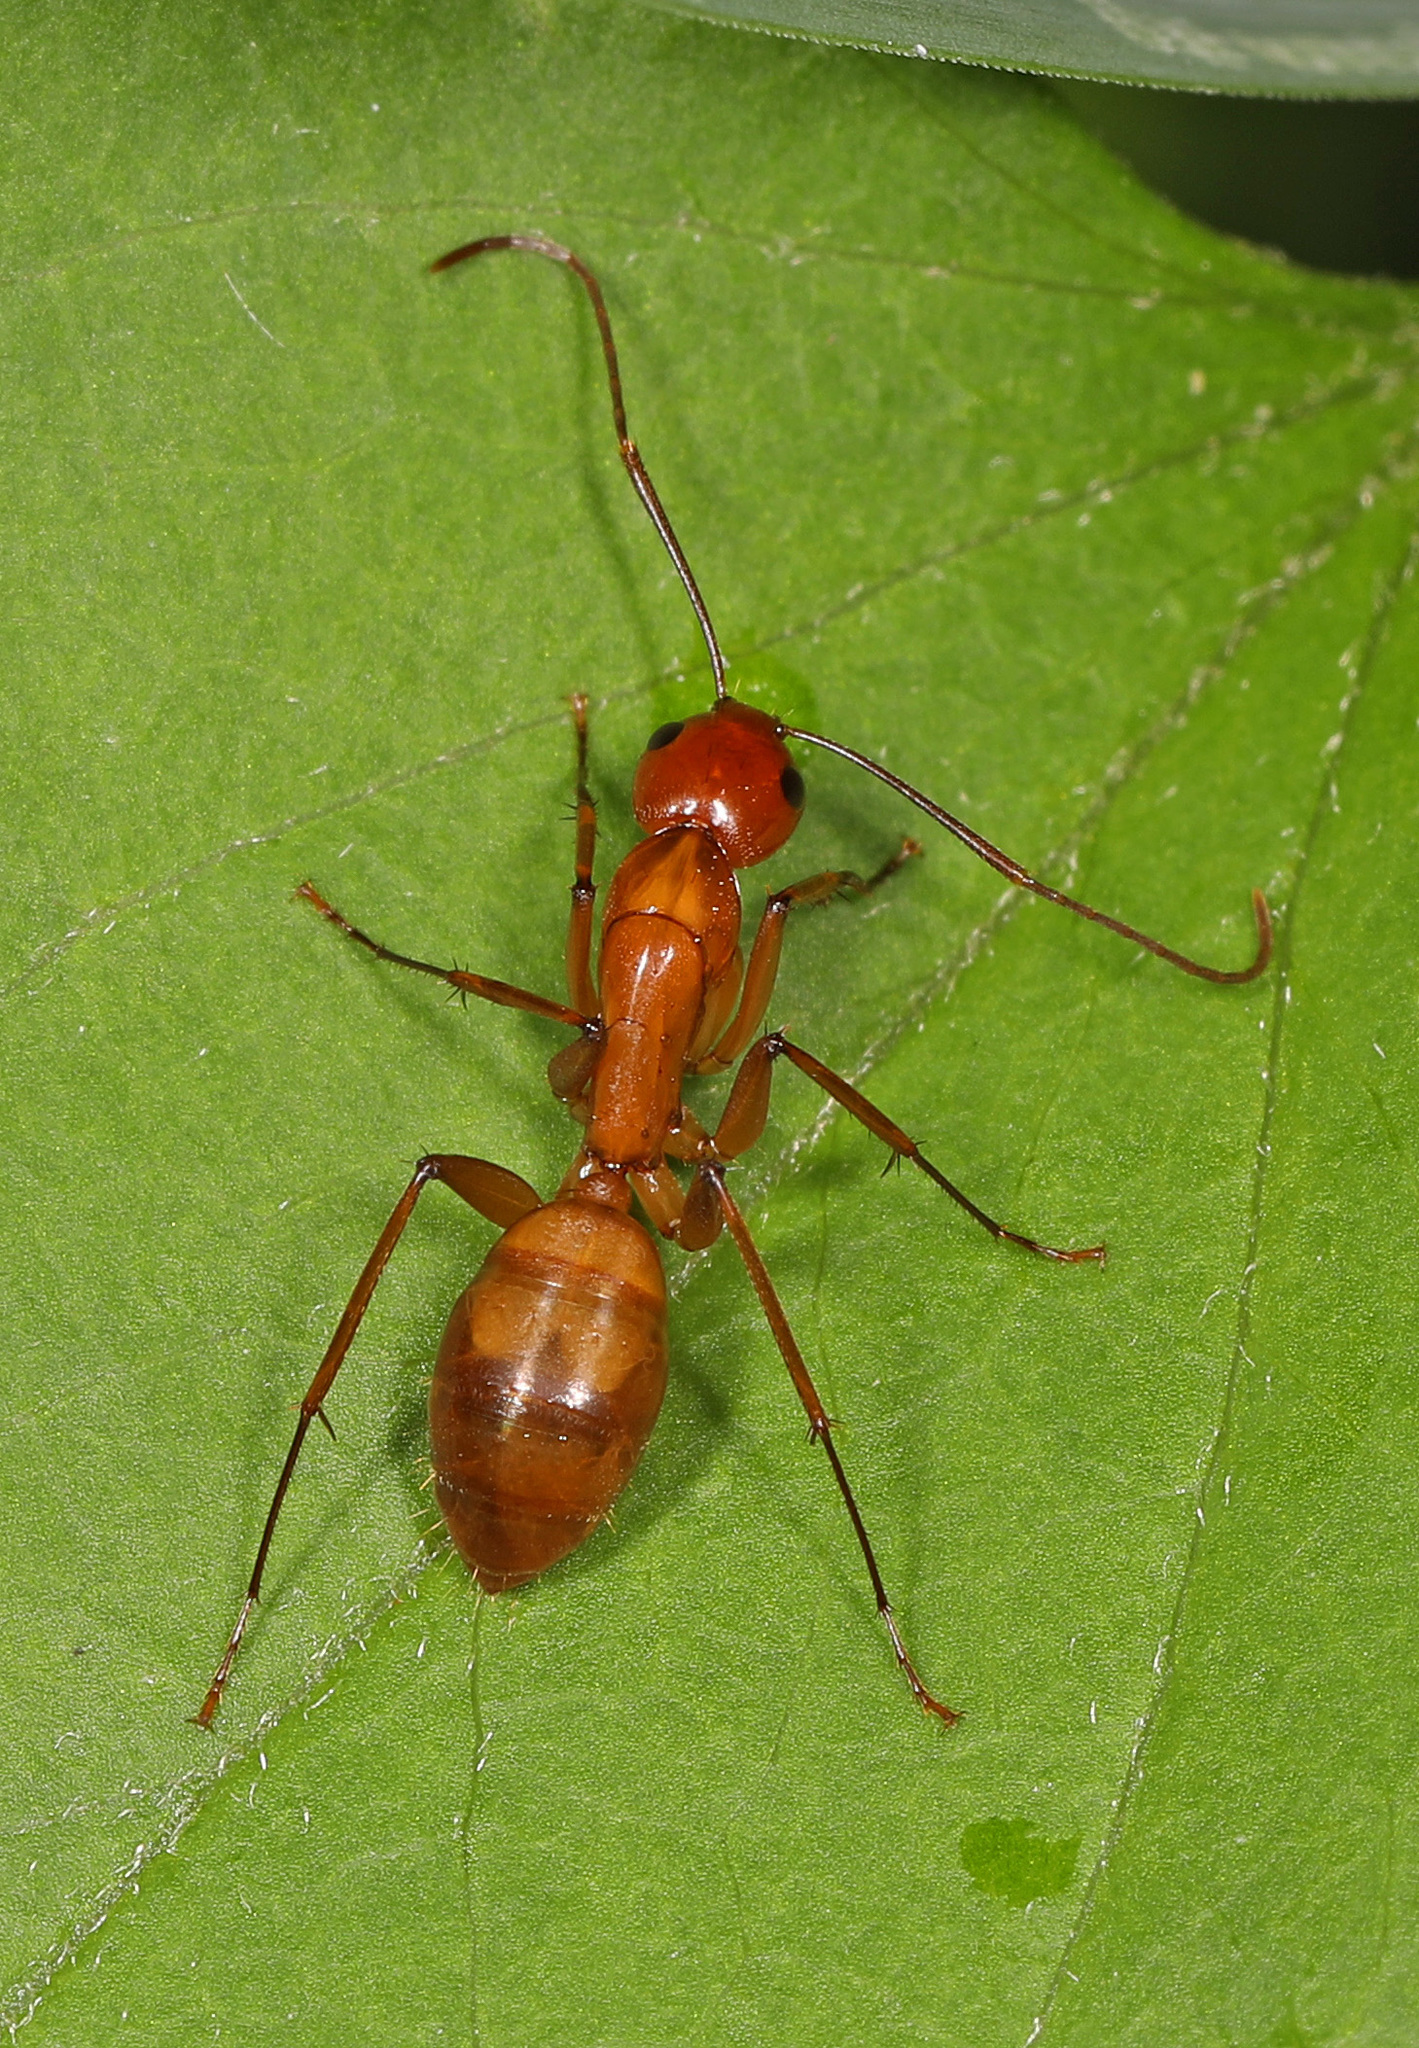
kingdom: Animalia
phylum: Arthropoda
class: Insecta
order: Hymenoptera
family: Formicidae
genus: Camponotus
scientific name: Camponotus castaneus
